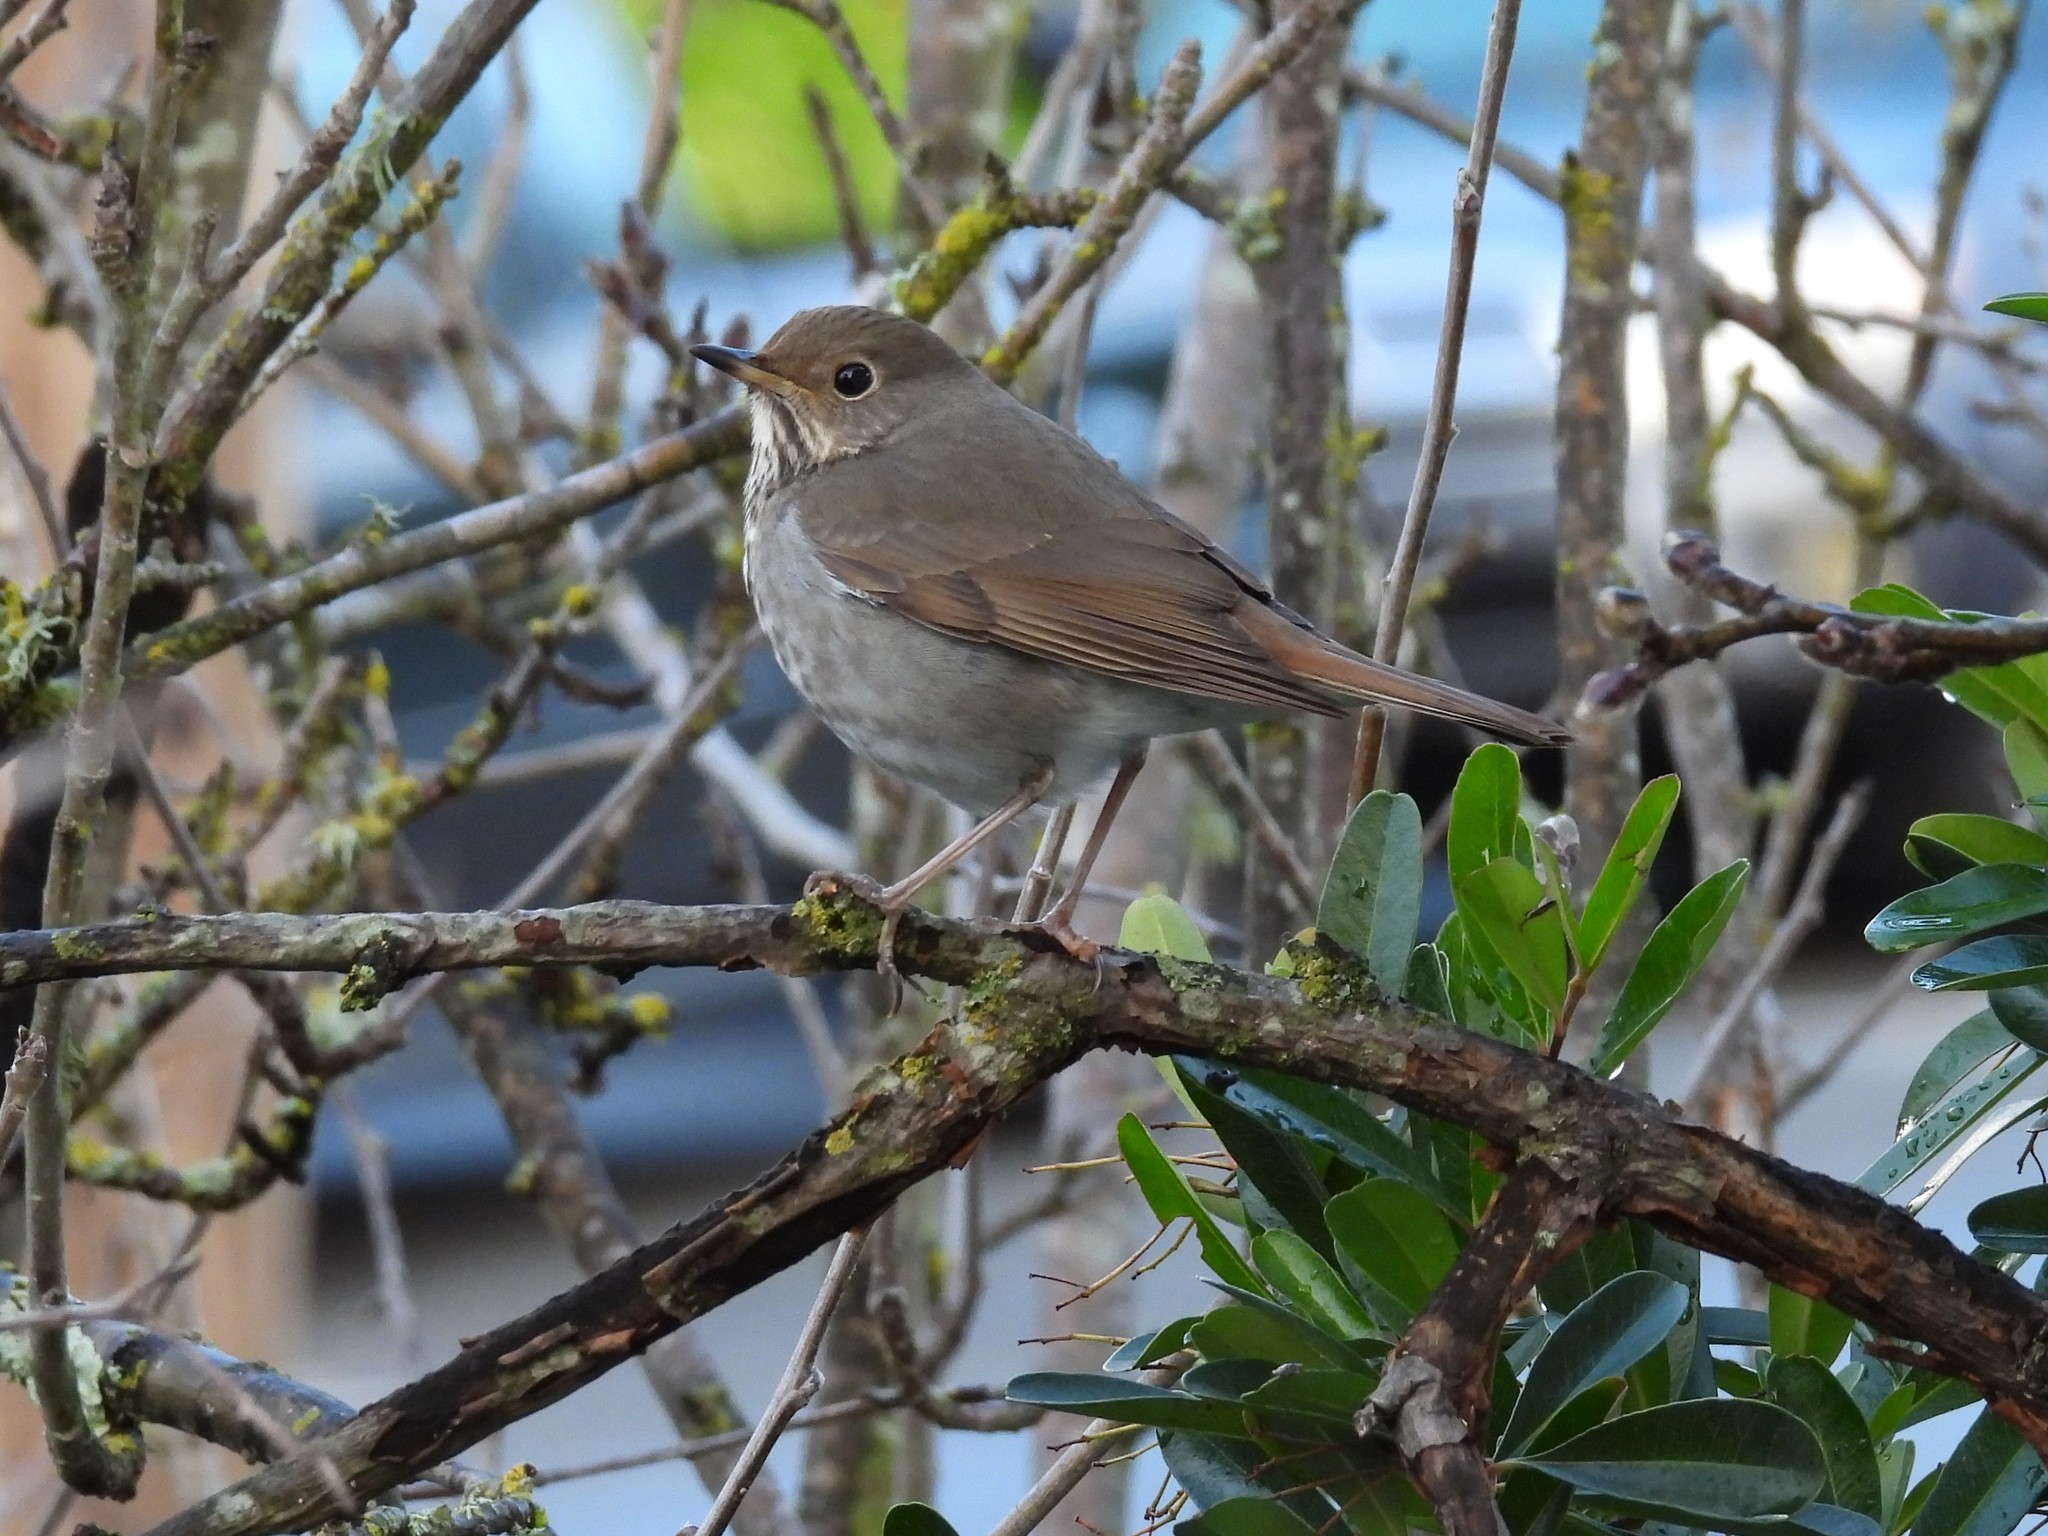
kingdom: Animalia
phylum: Chordata
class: Aves
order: Passeriformes
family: Turdidae
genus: Catharus
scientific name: Catharus guttatus
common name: Hermit thrush
